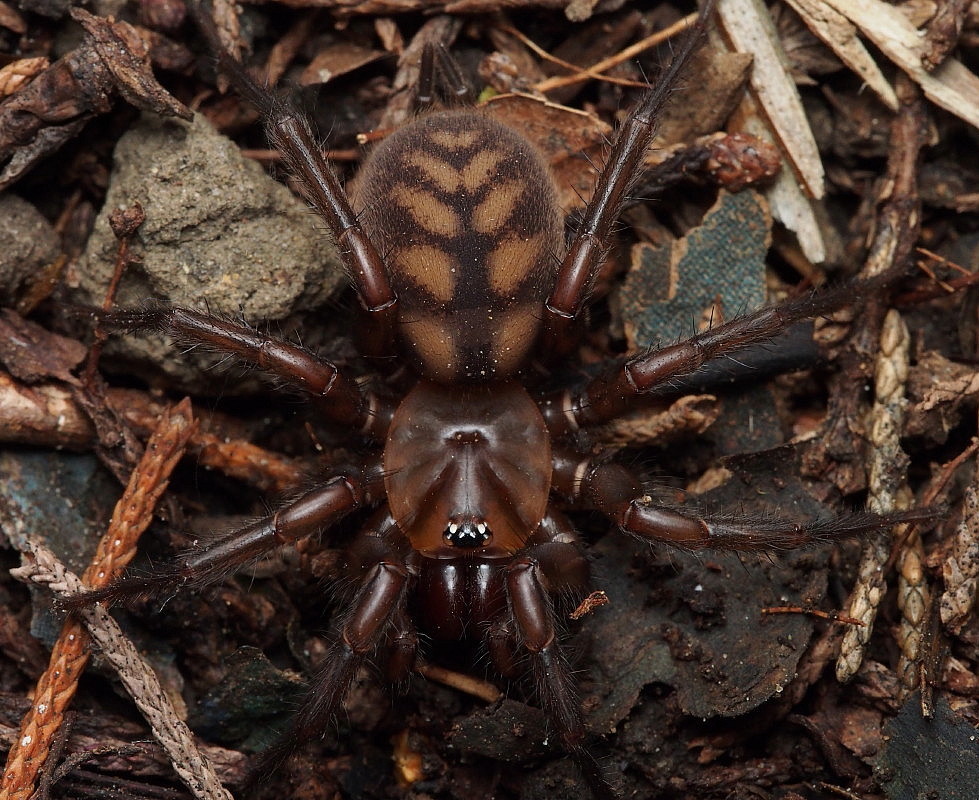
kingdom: Animalia
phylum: Arthropoda
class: Arachnida
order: Araneae
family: Hexathelidae
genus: Hexathele
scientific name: Hexathele kohua
